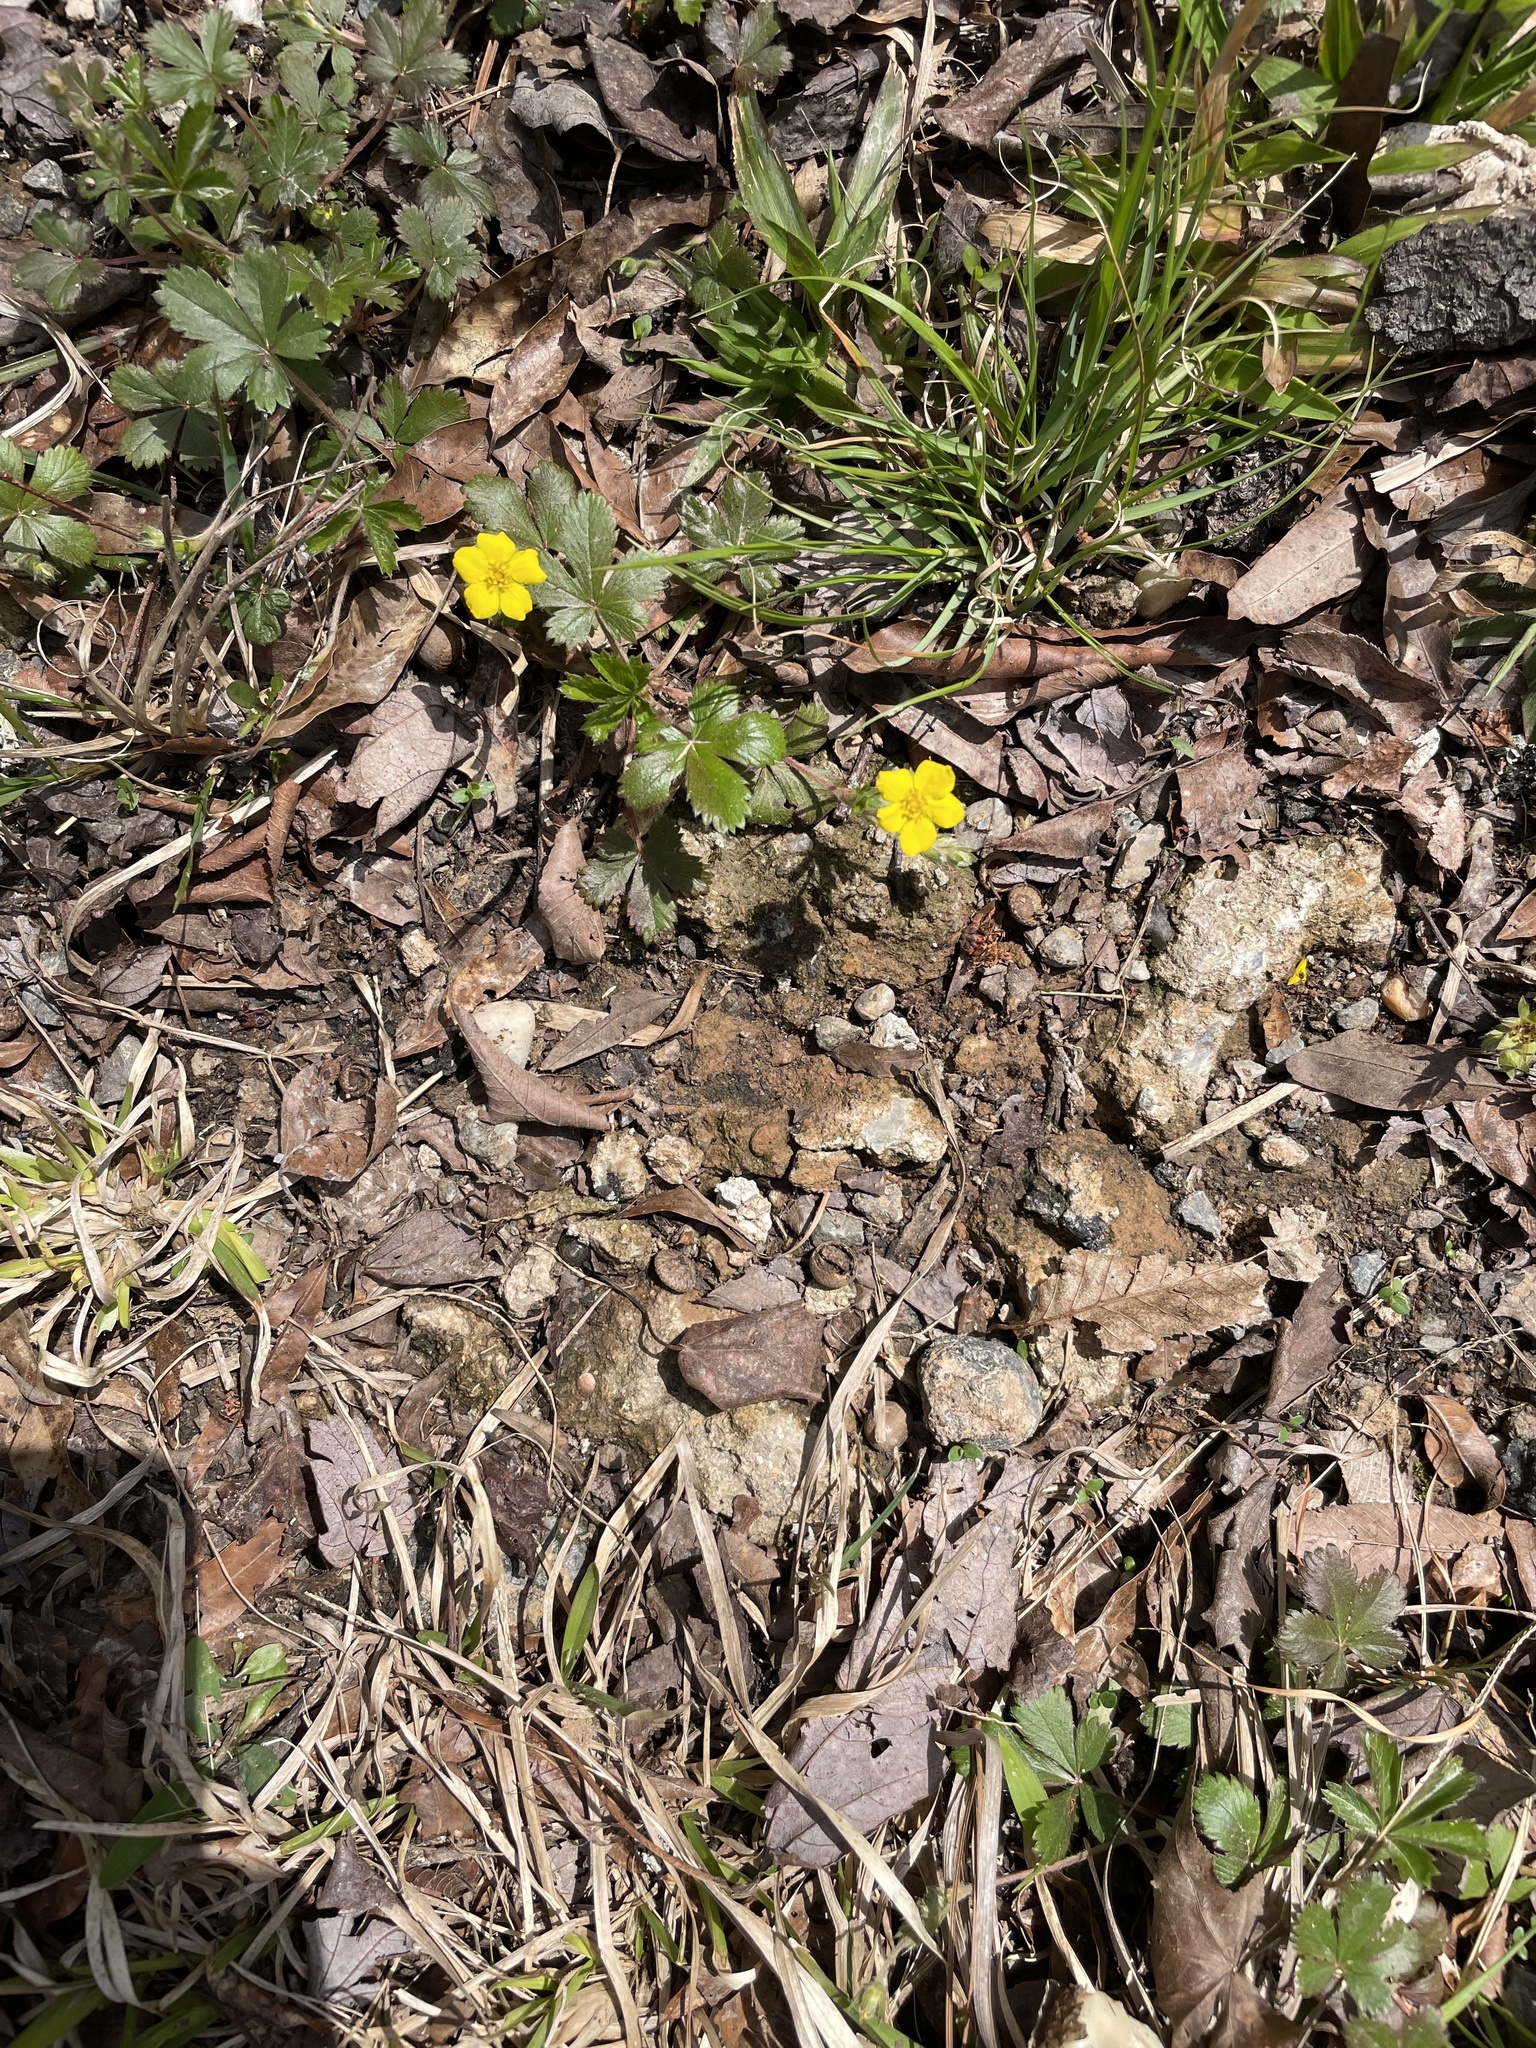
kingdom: Plantae
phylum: Tracheophyta
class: Magnoliopsida
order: Rosales
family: Rosaceae
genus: Potentilla
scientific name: Potentilla canadensis
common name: Canada cinquefoil
